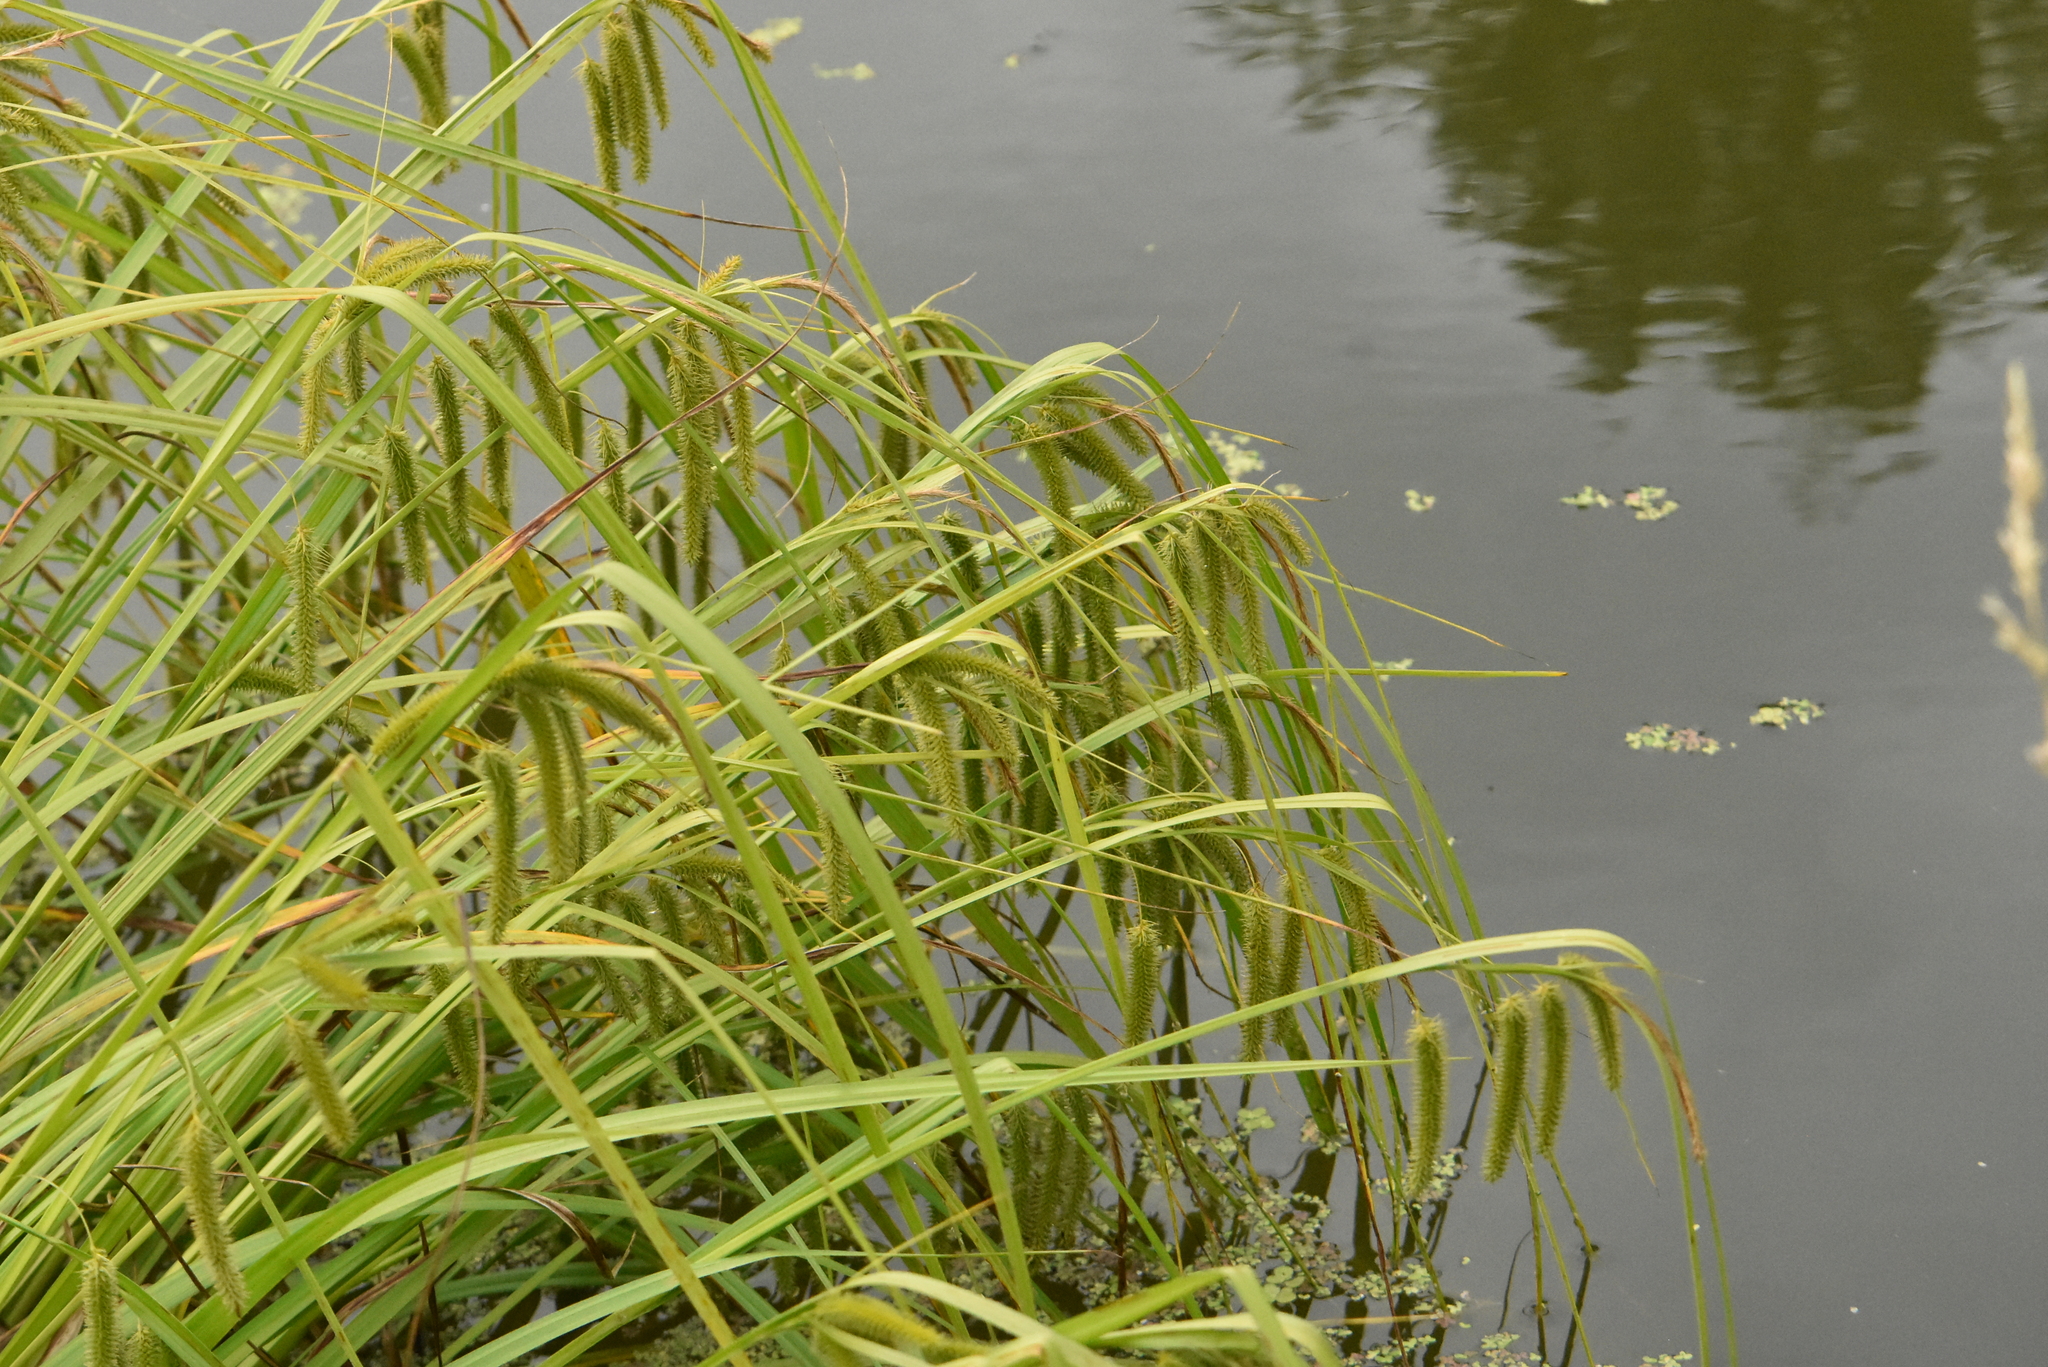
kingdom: Plantae
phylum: Tracheophyta
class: Liliopsida
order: Poales
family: Cyperaceae
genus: Carex
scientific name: Carex pseudocyperus
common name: Cyperus sedge
